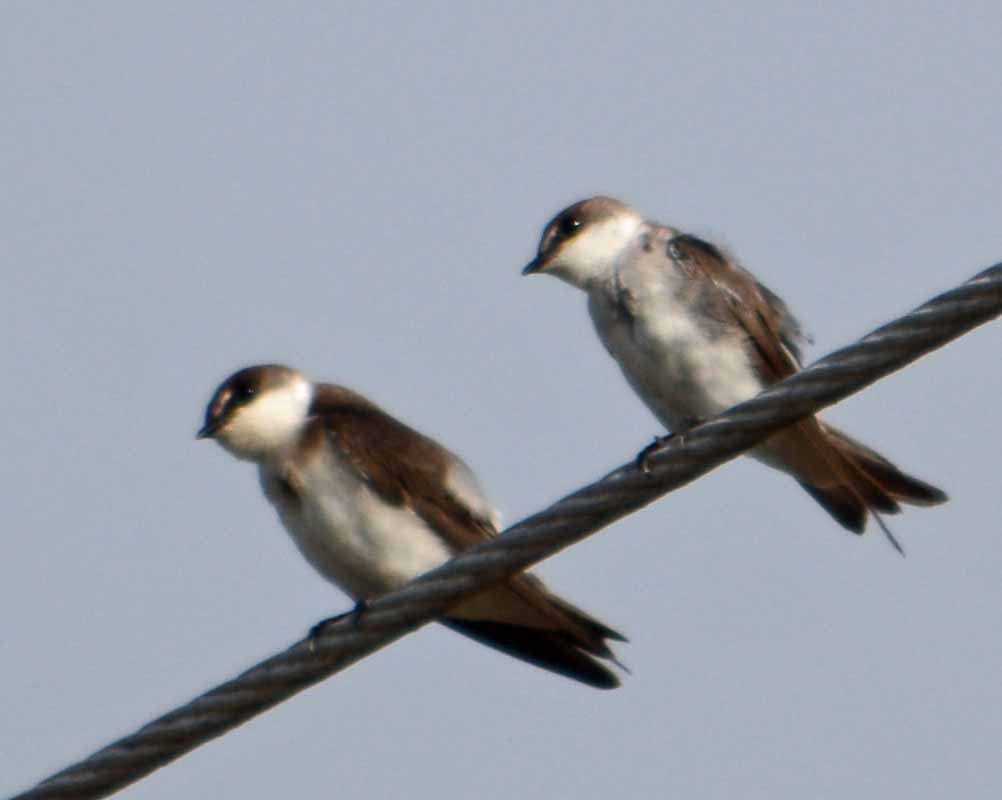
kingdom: Animalia
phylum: Chordata
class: Aves
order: Passeriformes
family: Hirundinidae
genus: Tachycineta
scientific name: Tachycineta albilinea
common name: Mangrove swallow
